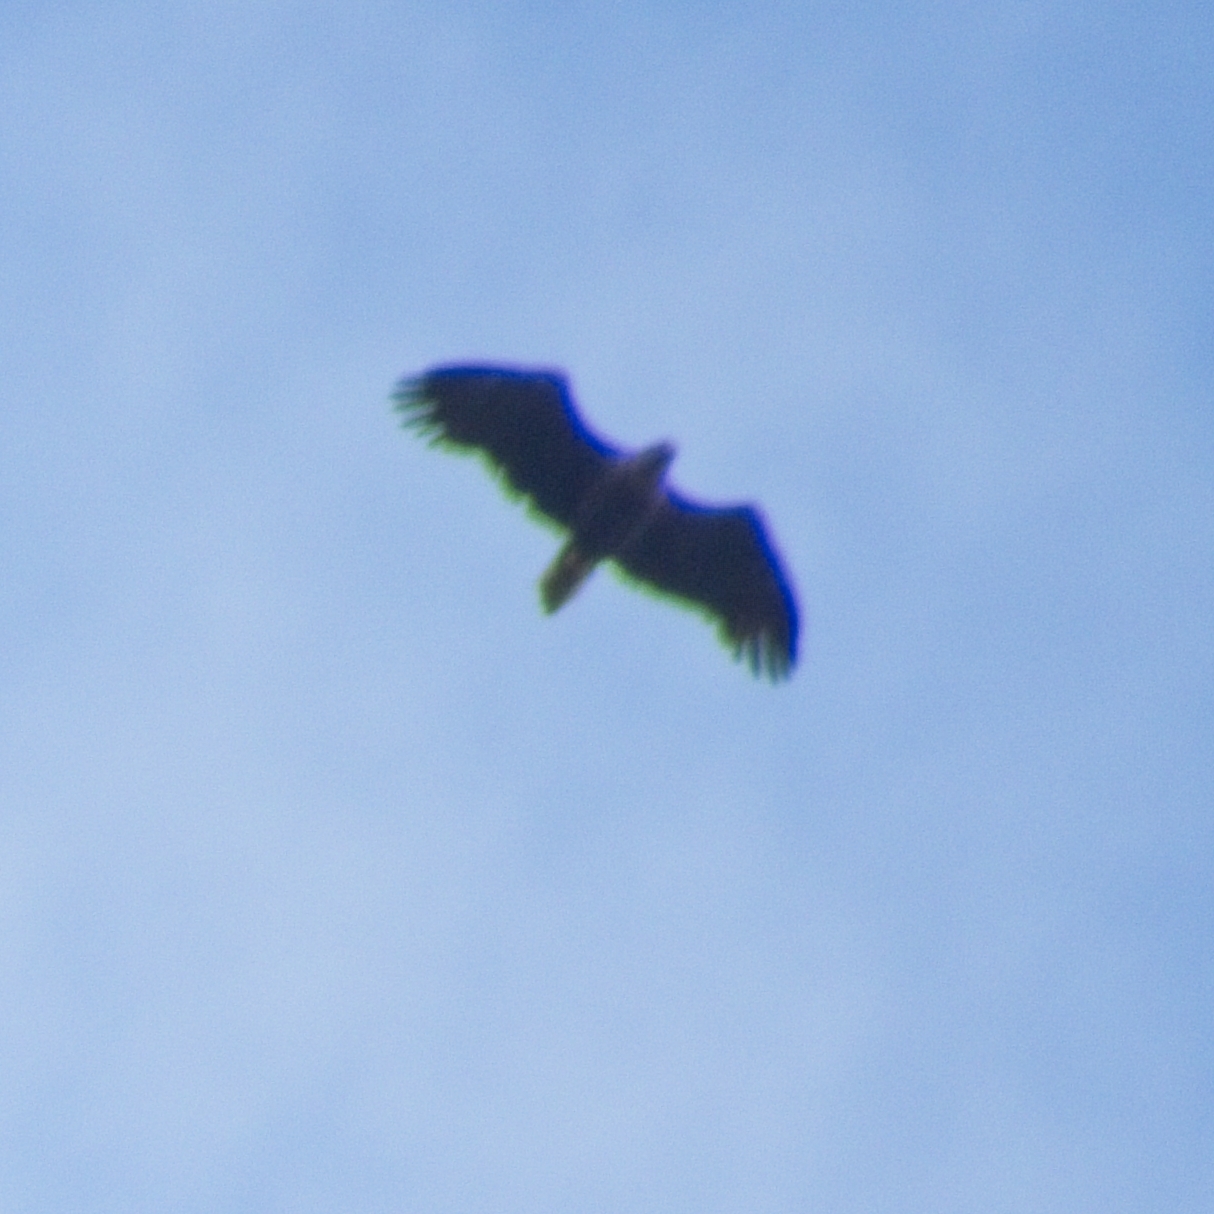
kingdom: Animalia
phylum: Chordata
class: Aves
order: Accipitriformes
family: Accipitridae
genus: Haliaeetus
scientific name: Haliaeetus albicilla
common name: White-tailed eagle
